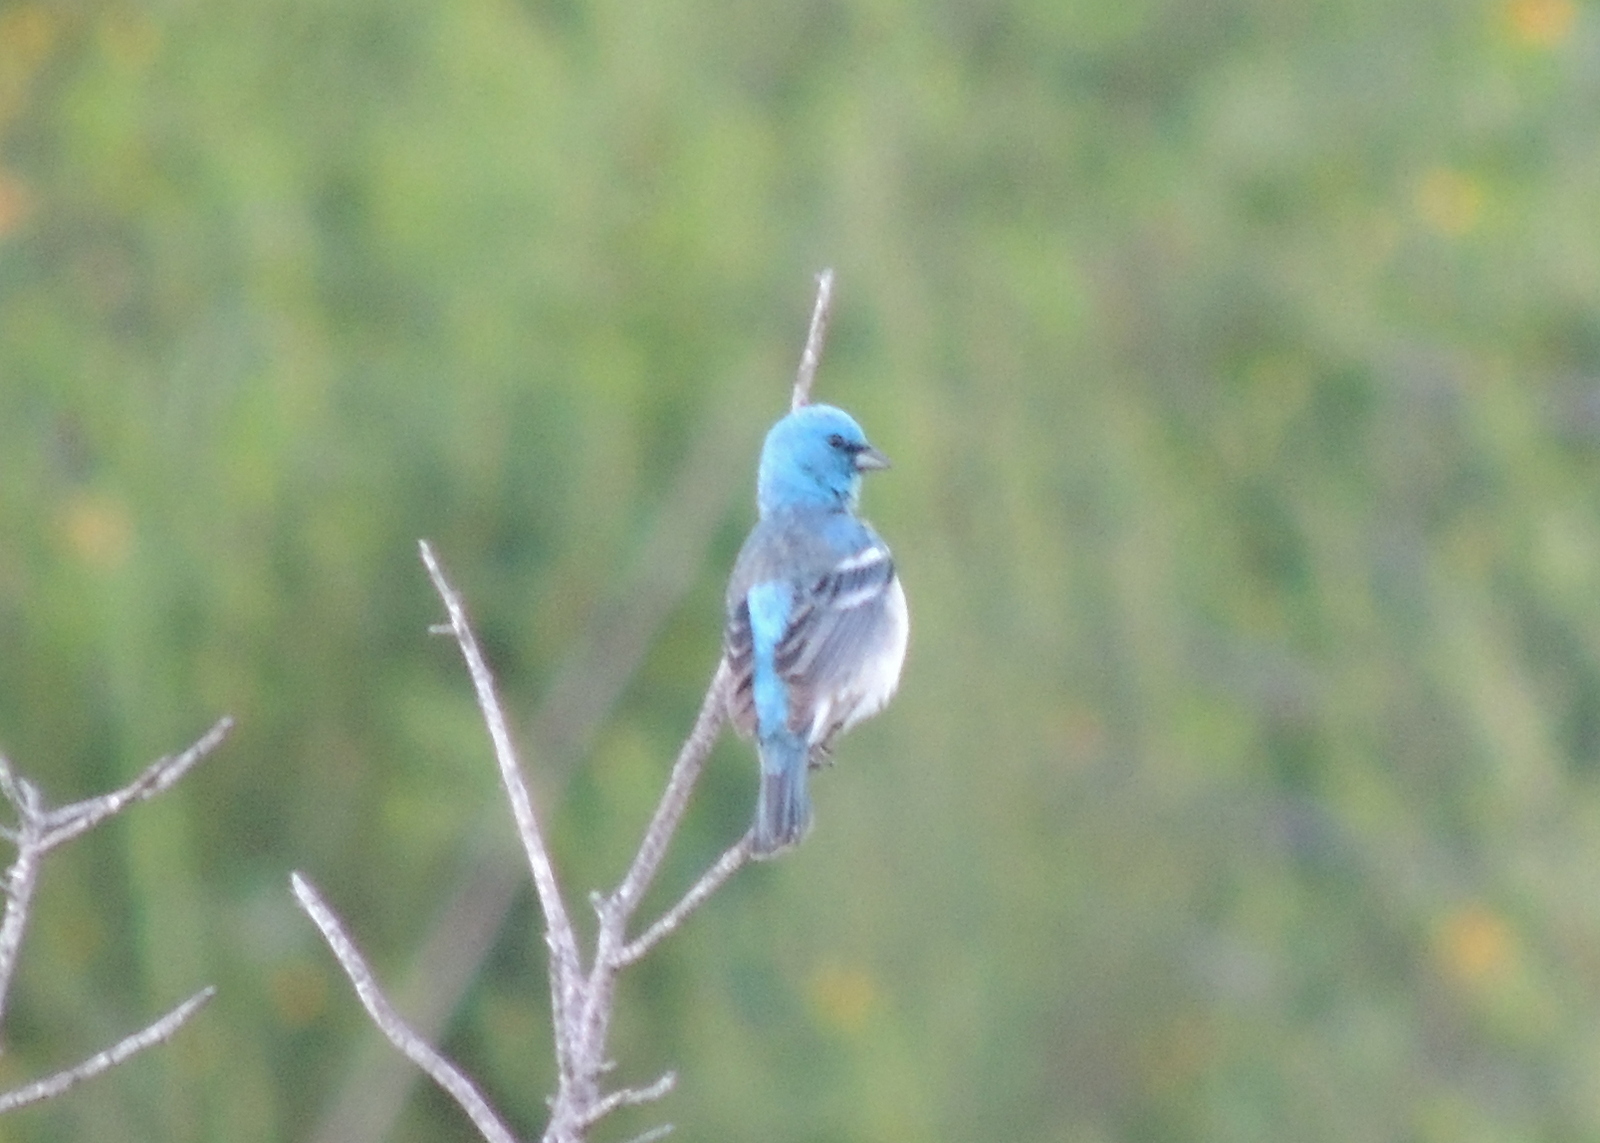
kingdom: Animalia
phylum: Chordata
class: Aves
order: Passeriformes
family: Cardinalidae
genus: Passerina
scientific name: Passerina amoena
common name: Lazuli bunting
